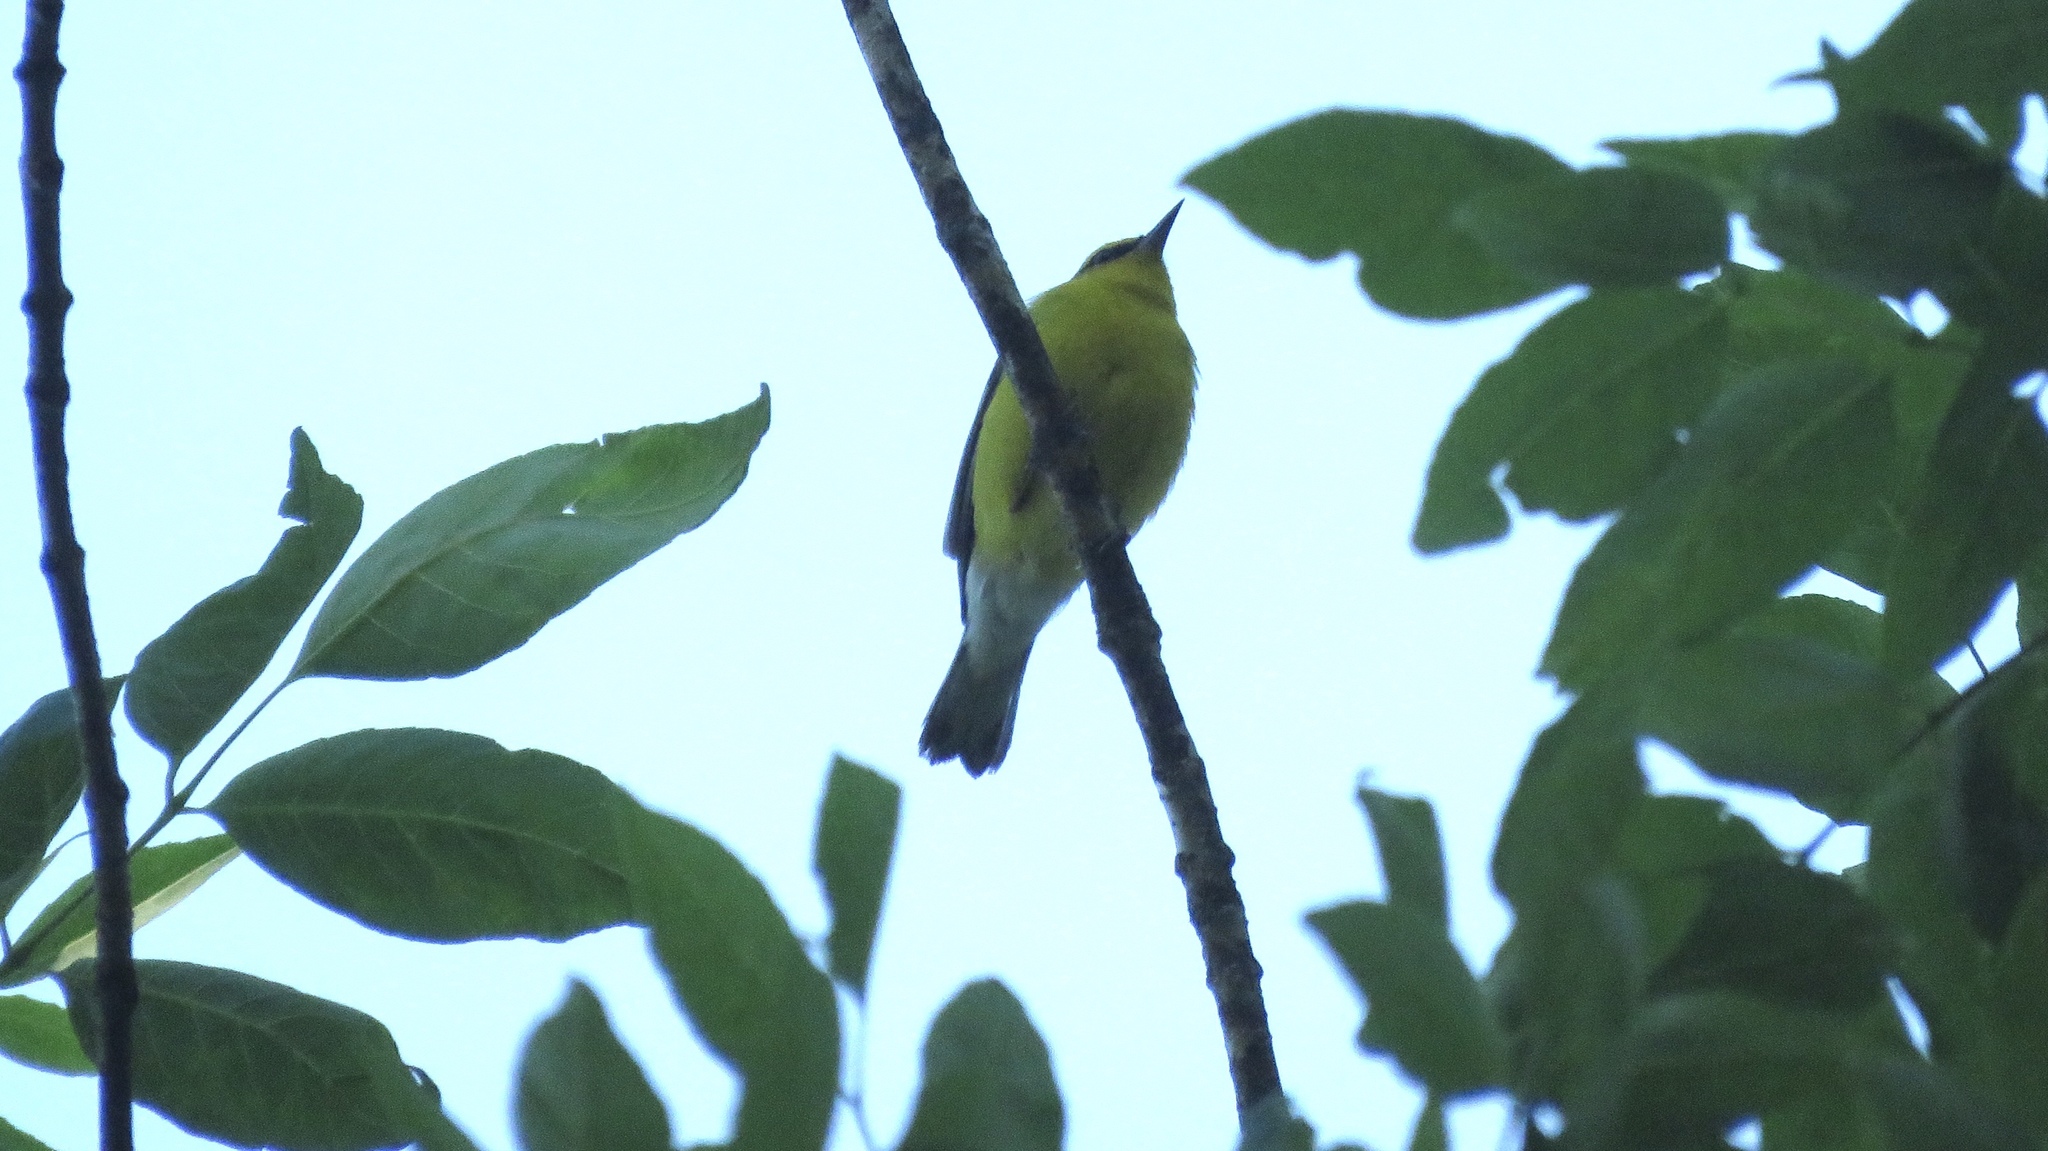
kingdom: Animalia
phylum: Chordata
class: Aves
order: Passeriformes
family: Parulidae
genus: Vermivora
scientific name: Vermivora cyanoptera
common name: Blue-winged warbler
